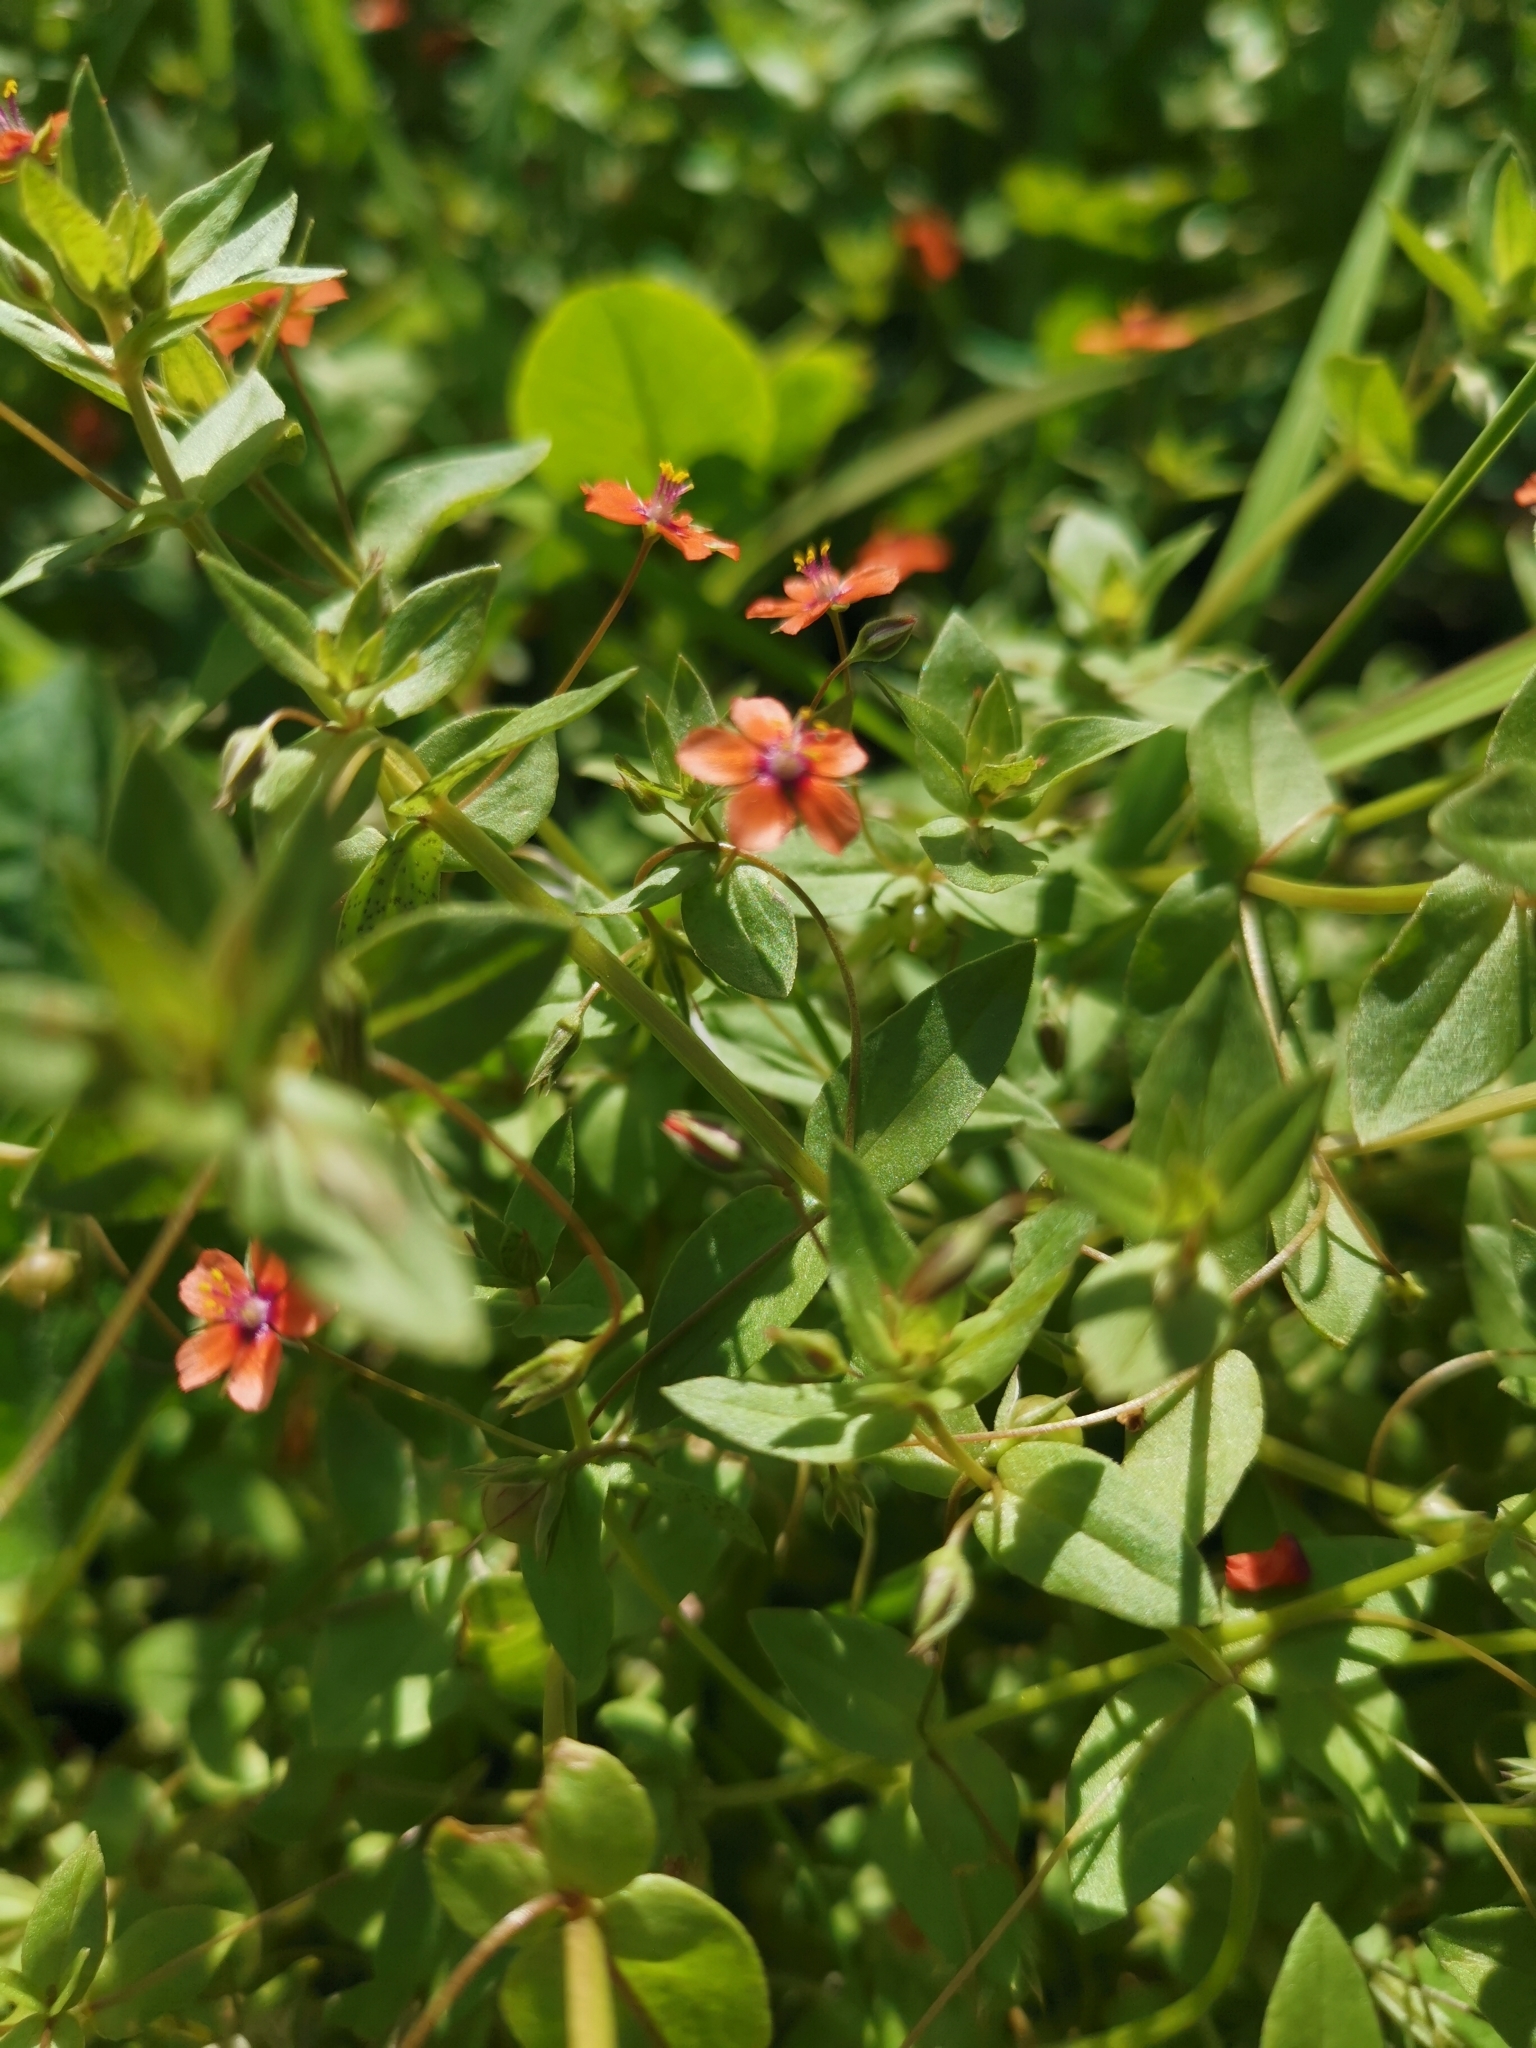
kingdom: Plantae
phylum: Tracheophyta
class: Magnoliopsida
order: Ericales
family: Primulaceae
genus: Lysimachia
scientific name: Lysimachia arvensis
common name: Scarlet pimpernel
